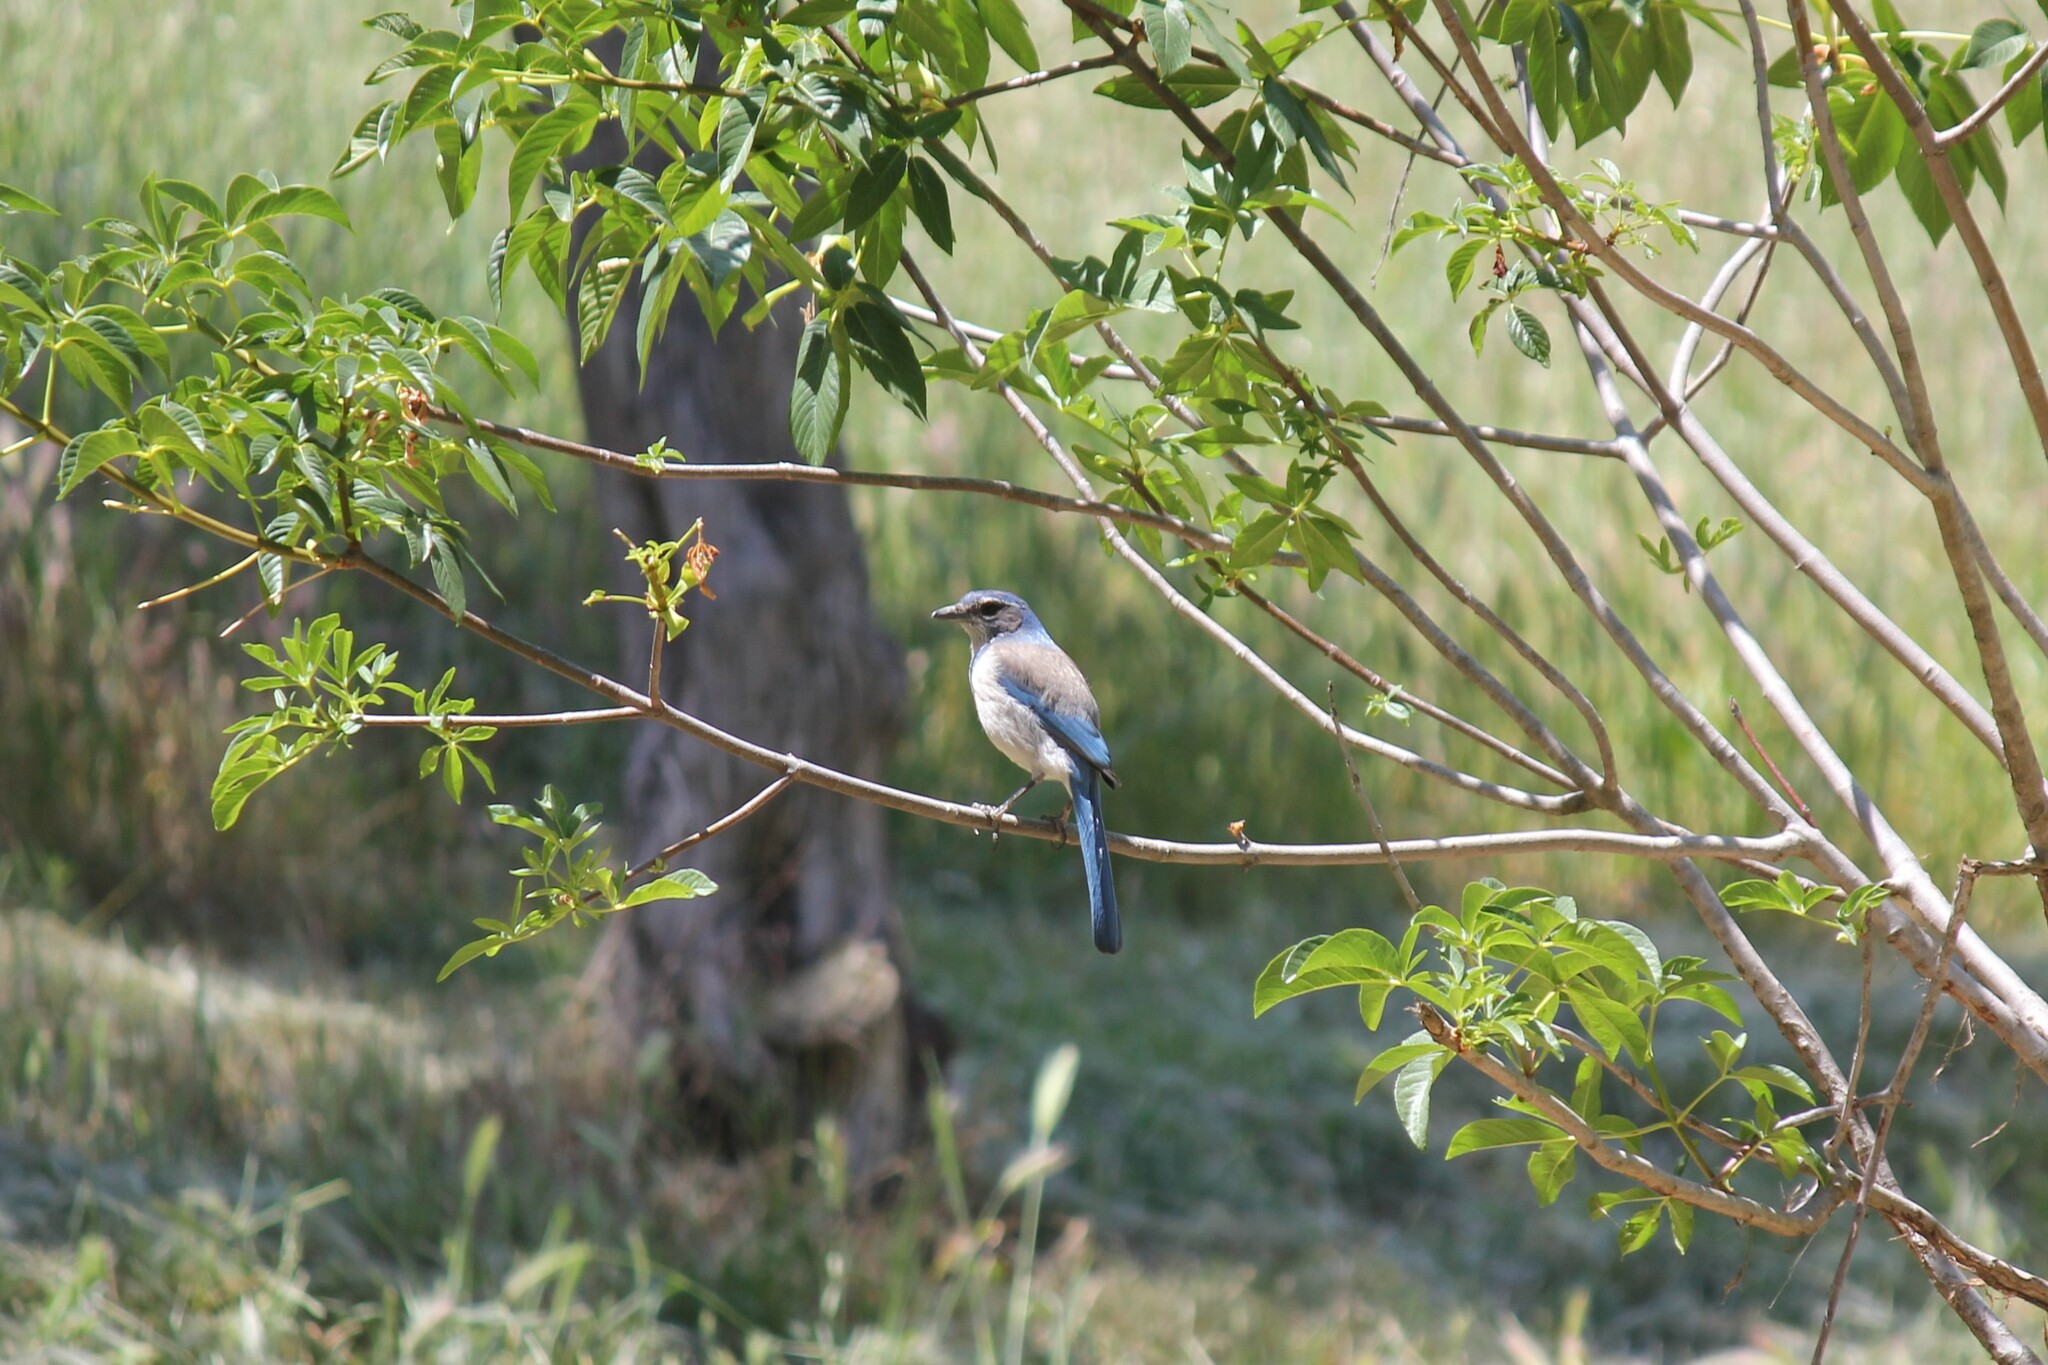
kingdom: Animalia
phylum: Chordata
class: Aves
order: Passeriformes
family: Corvidae
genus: Aphelocoma
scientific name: Aphelocoma californica
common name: California scrub-jay
